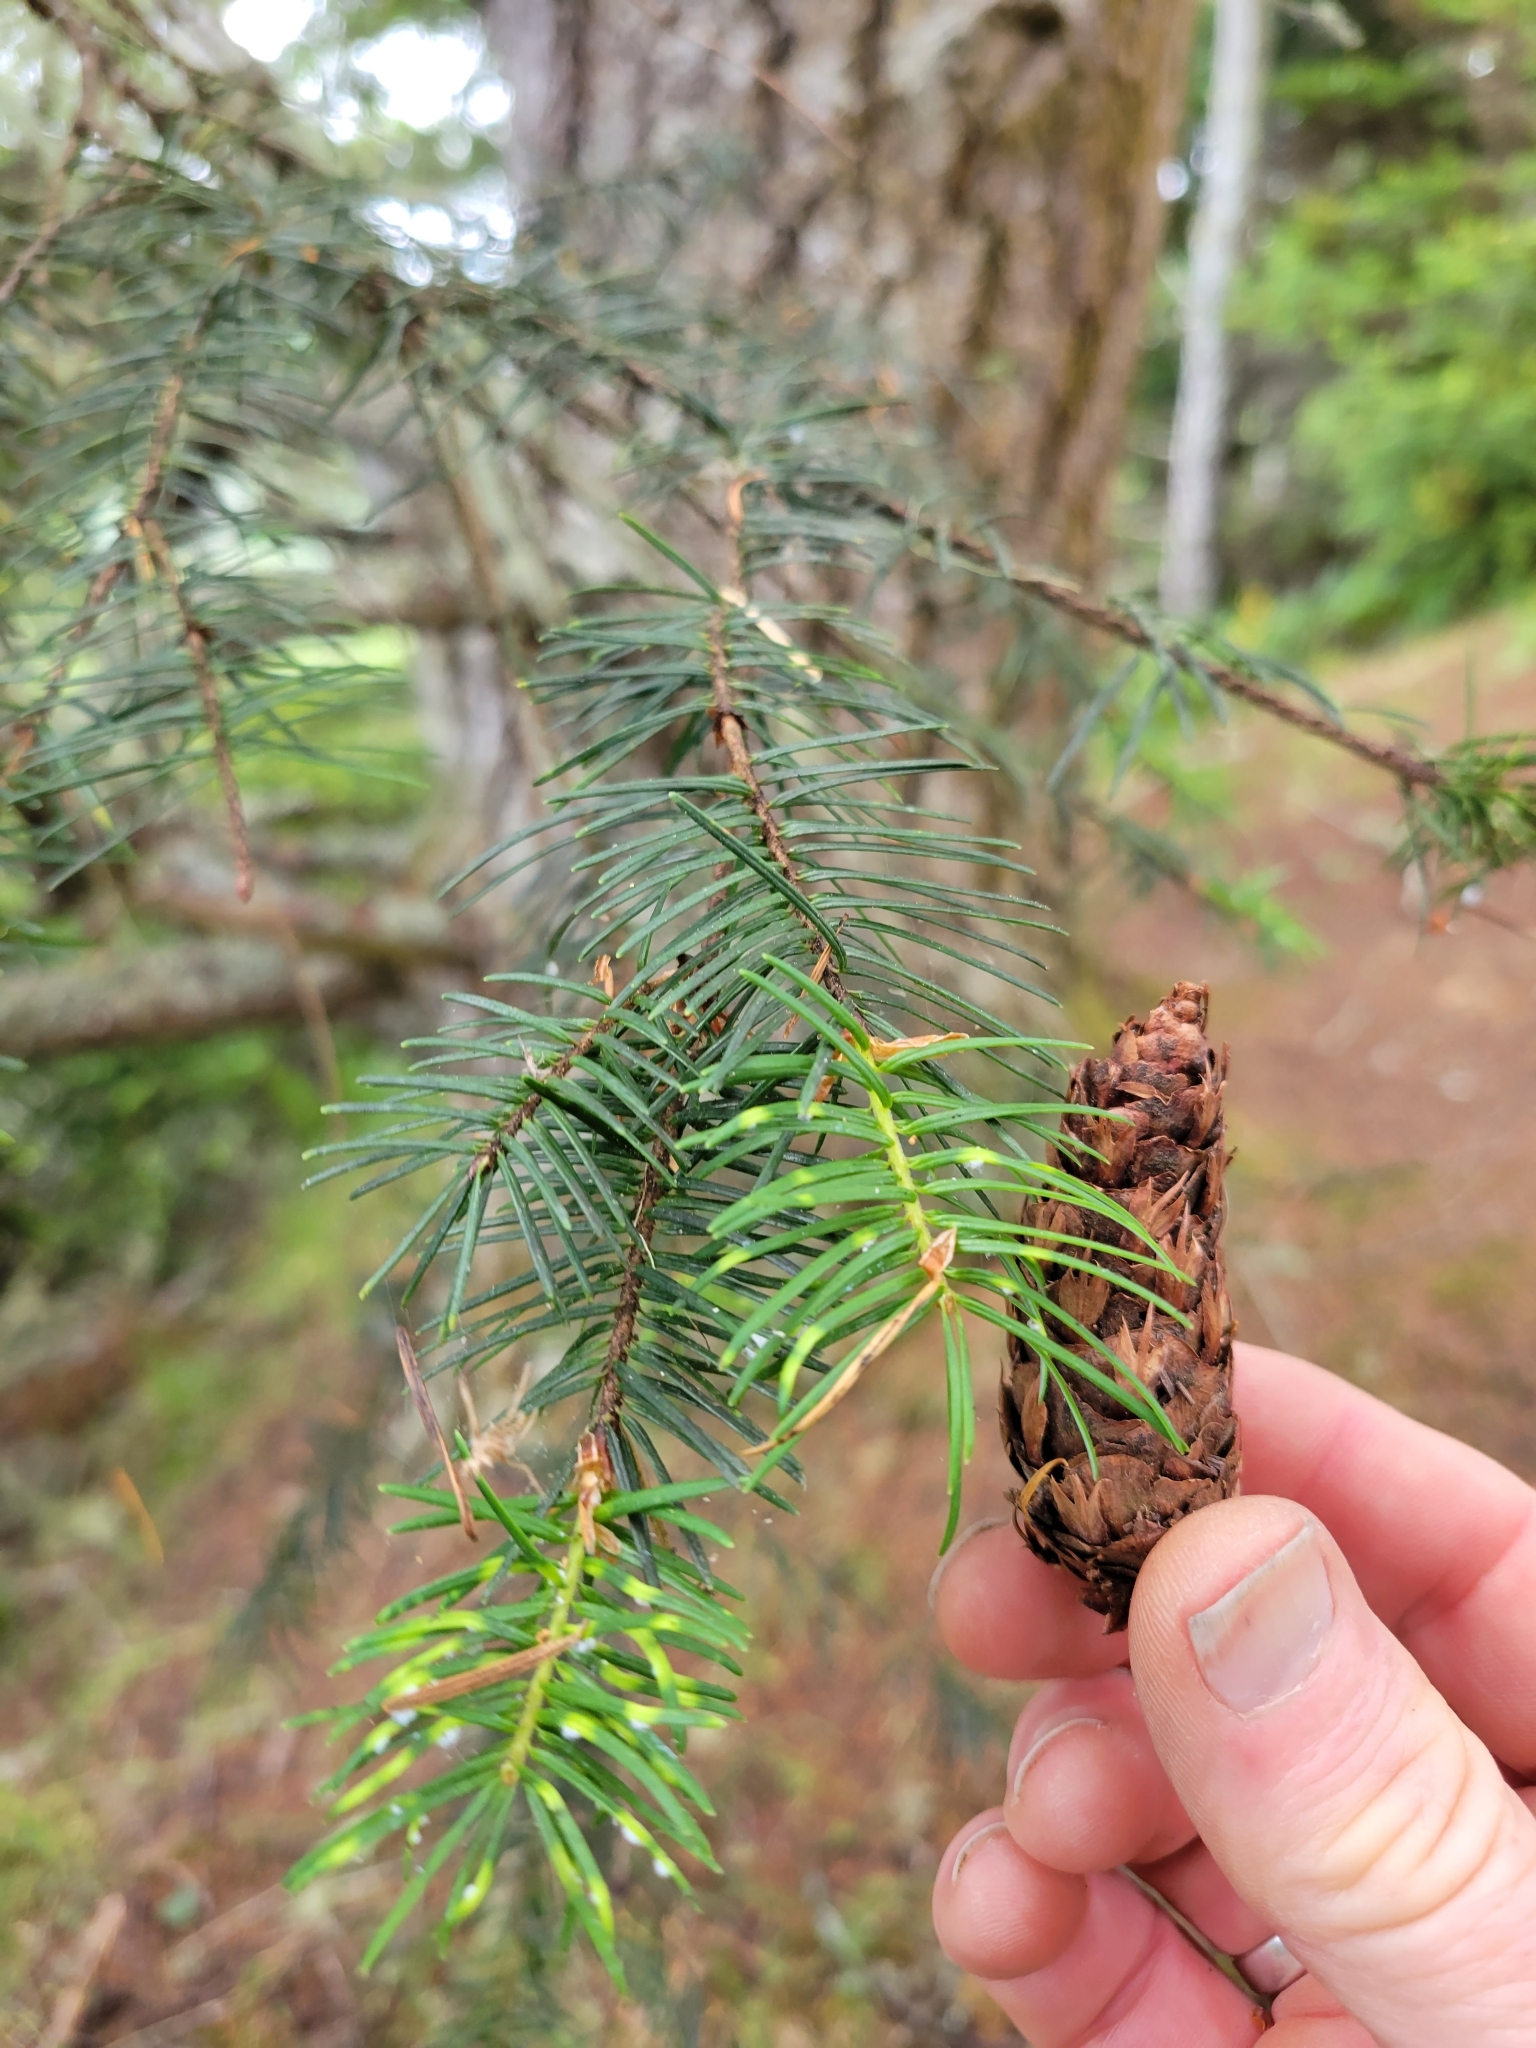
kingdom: Plantae
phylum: Tracheophyta
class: Pinopsida
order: Pinales
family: Pinaceae
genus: Pseudotsuga
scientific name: Pseudotsuga menziesii
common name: Douglas fir
